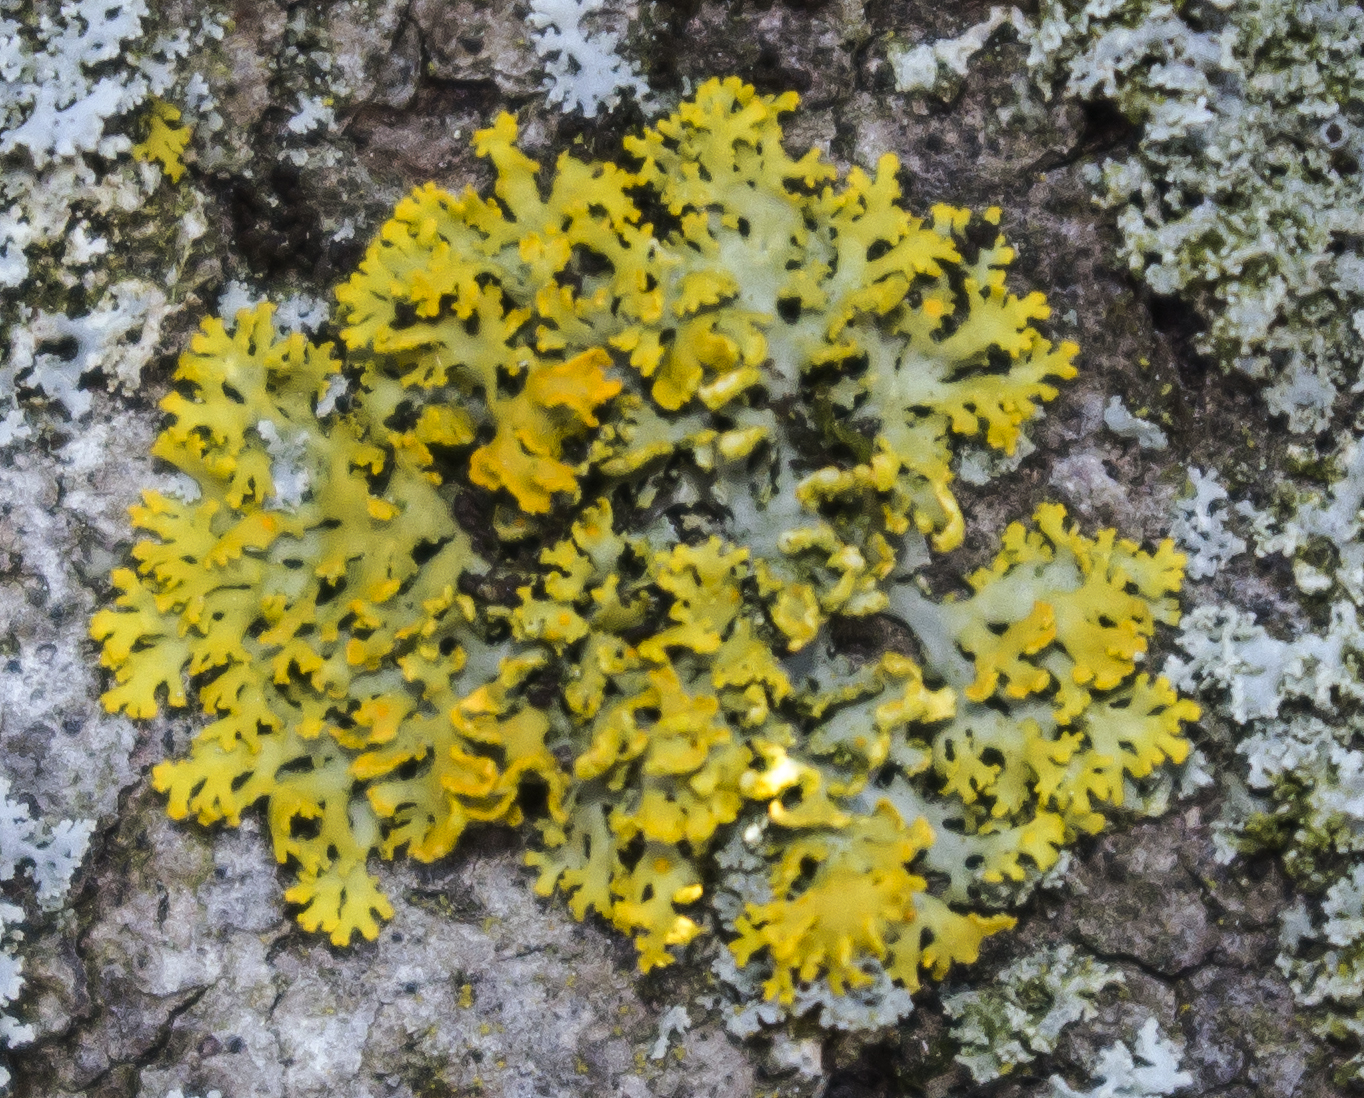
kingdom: Fungi
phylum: Ascomycota
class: Lecanoromycetes
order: Teloschistales
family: Teloschistaceae
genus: Xanthoria
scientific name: Xanthoria ulophyllodes
